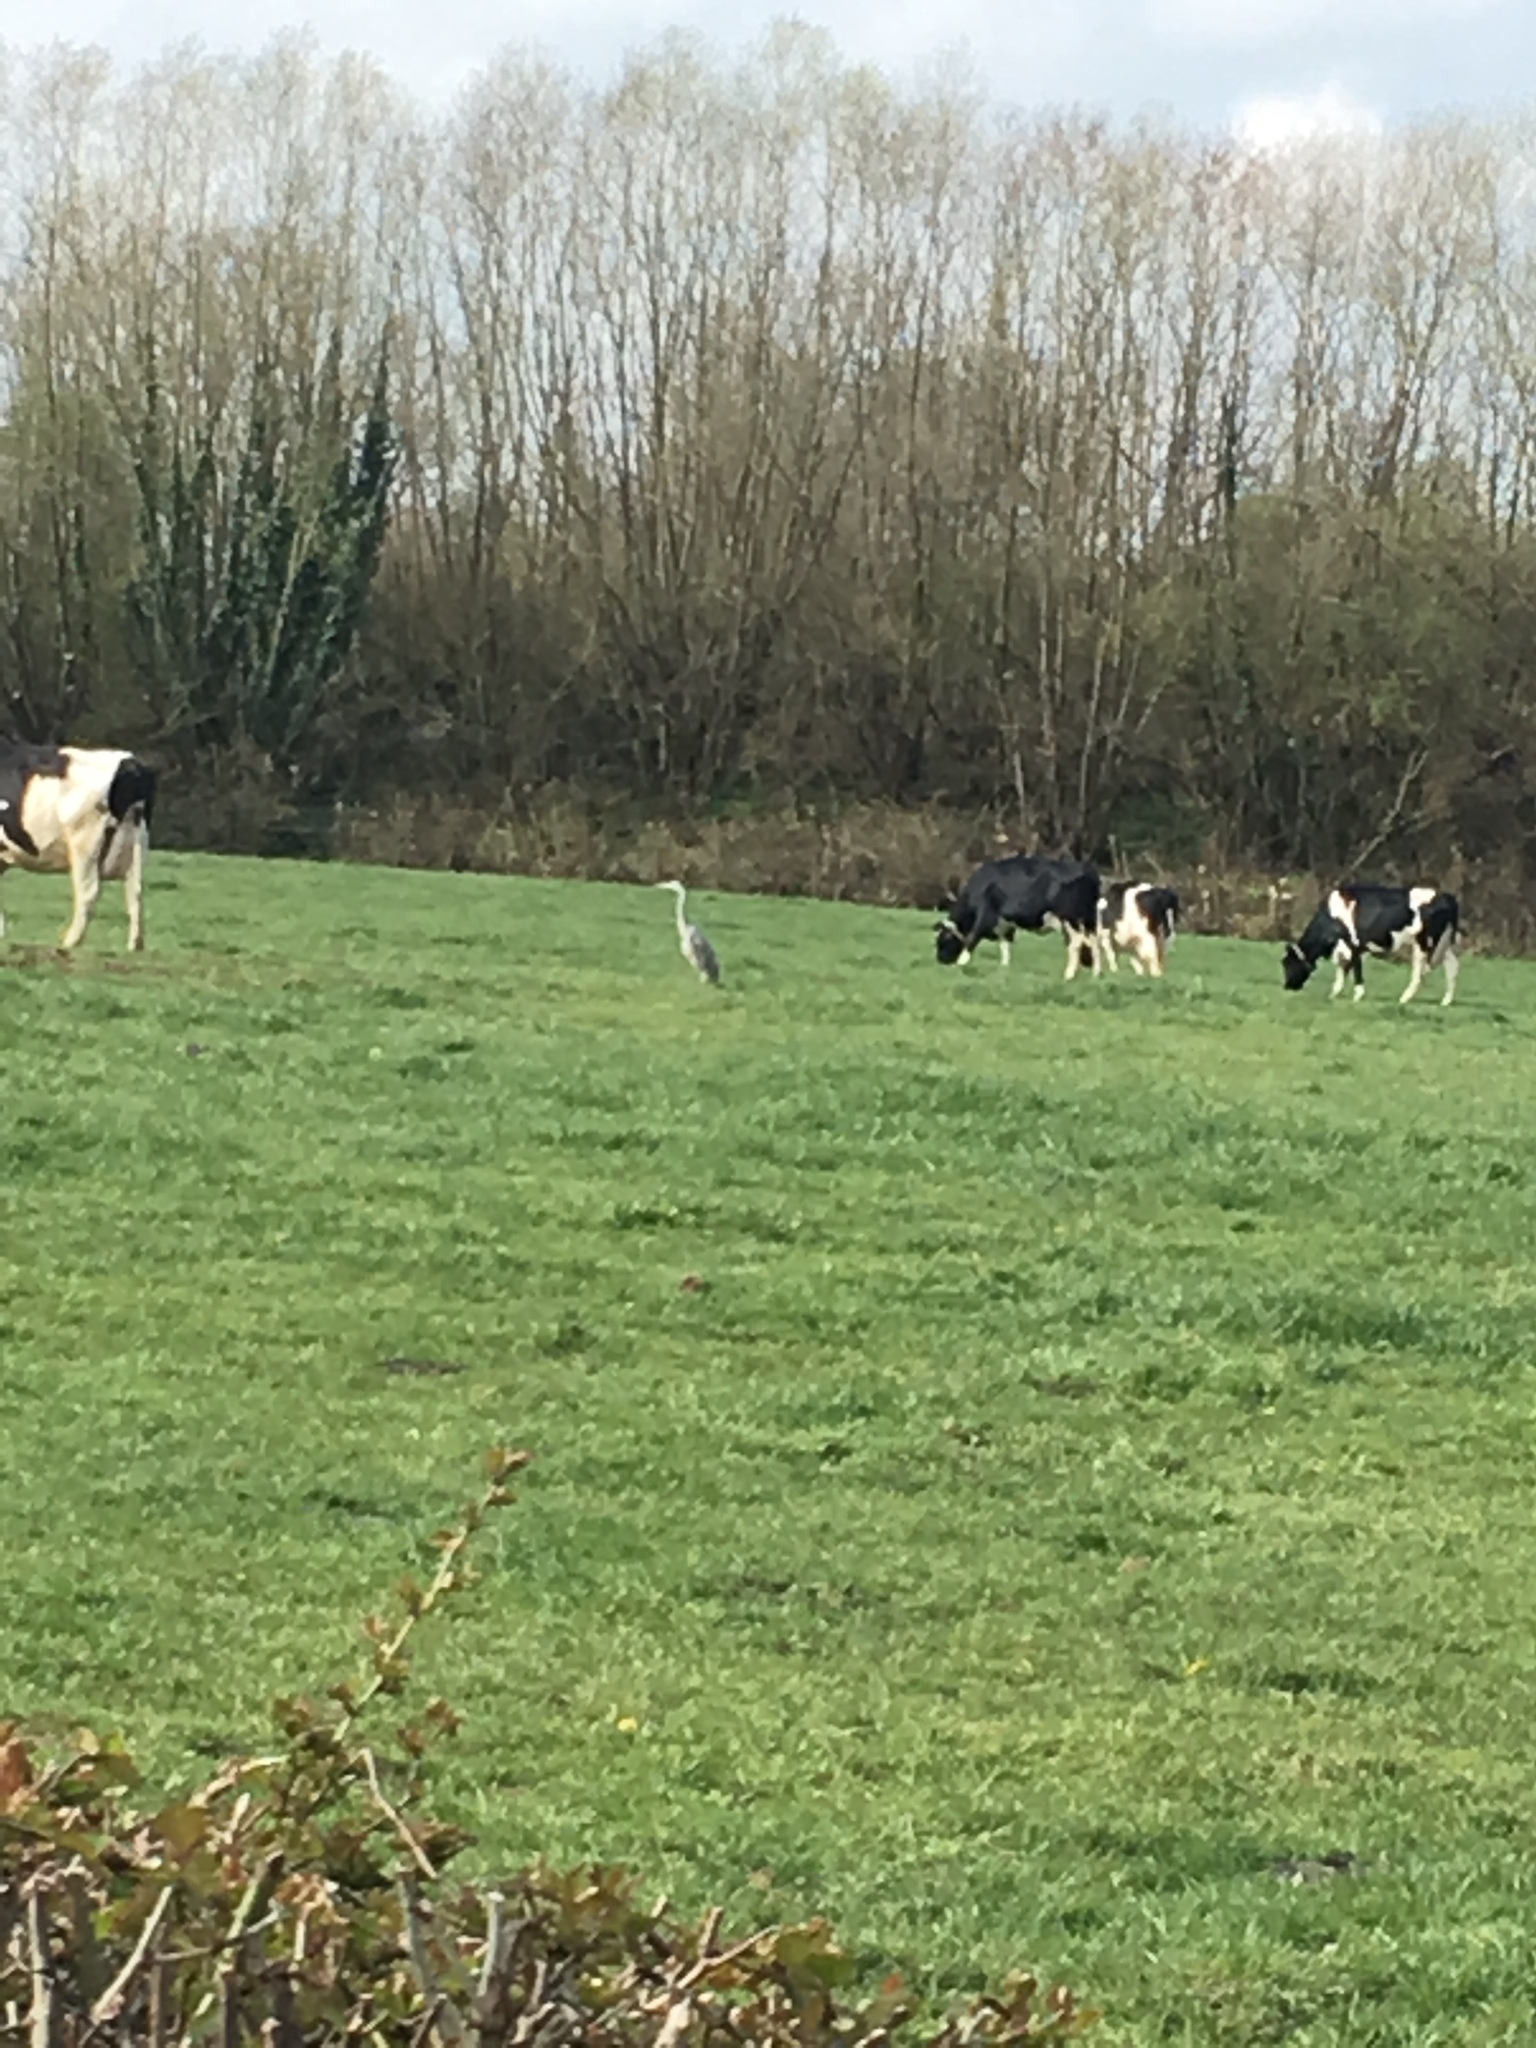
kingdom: Animalia
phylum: Chordata
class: Aves
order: Pelecaniformes
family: Ardeidae
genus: Ardea
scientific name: Ardea cinerea
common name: Grey heron
